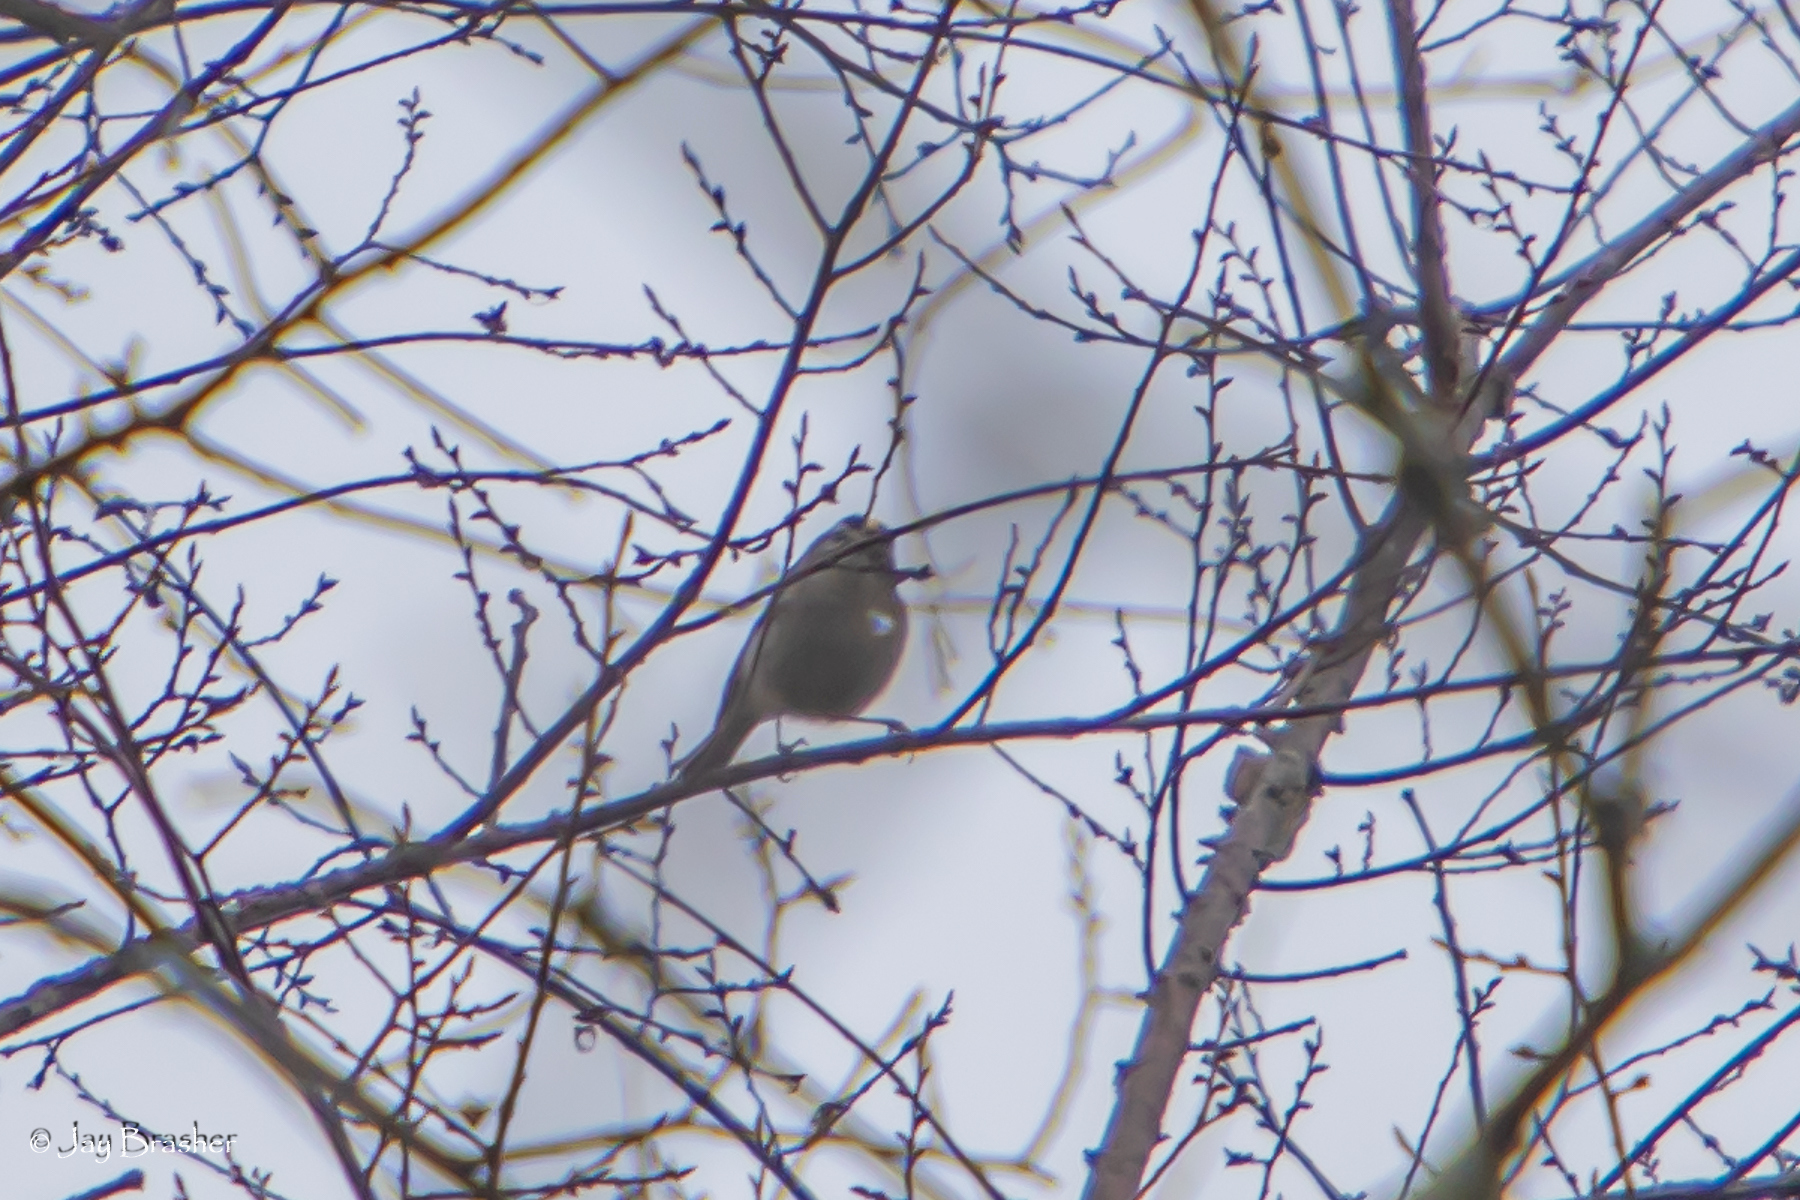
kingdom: Animalia
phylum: Chordata
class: Aves
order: Passeriformes
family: Regulidae
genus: Regulus
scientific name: Regulus satrapa
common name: Golden-crowned kinglet
